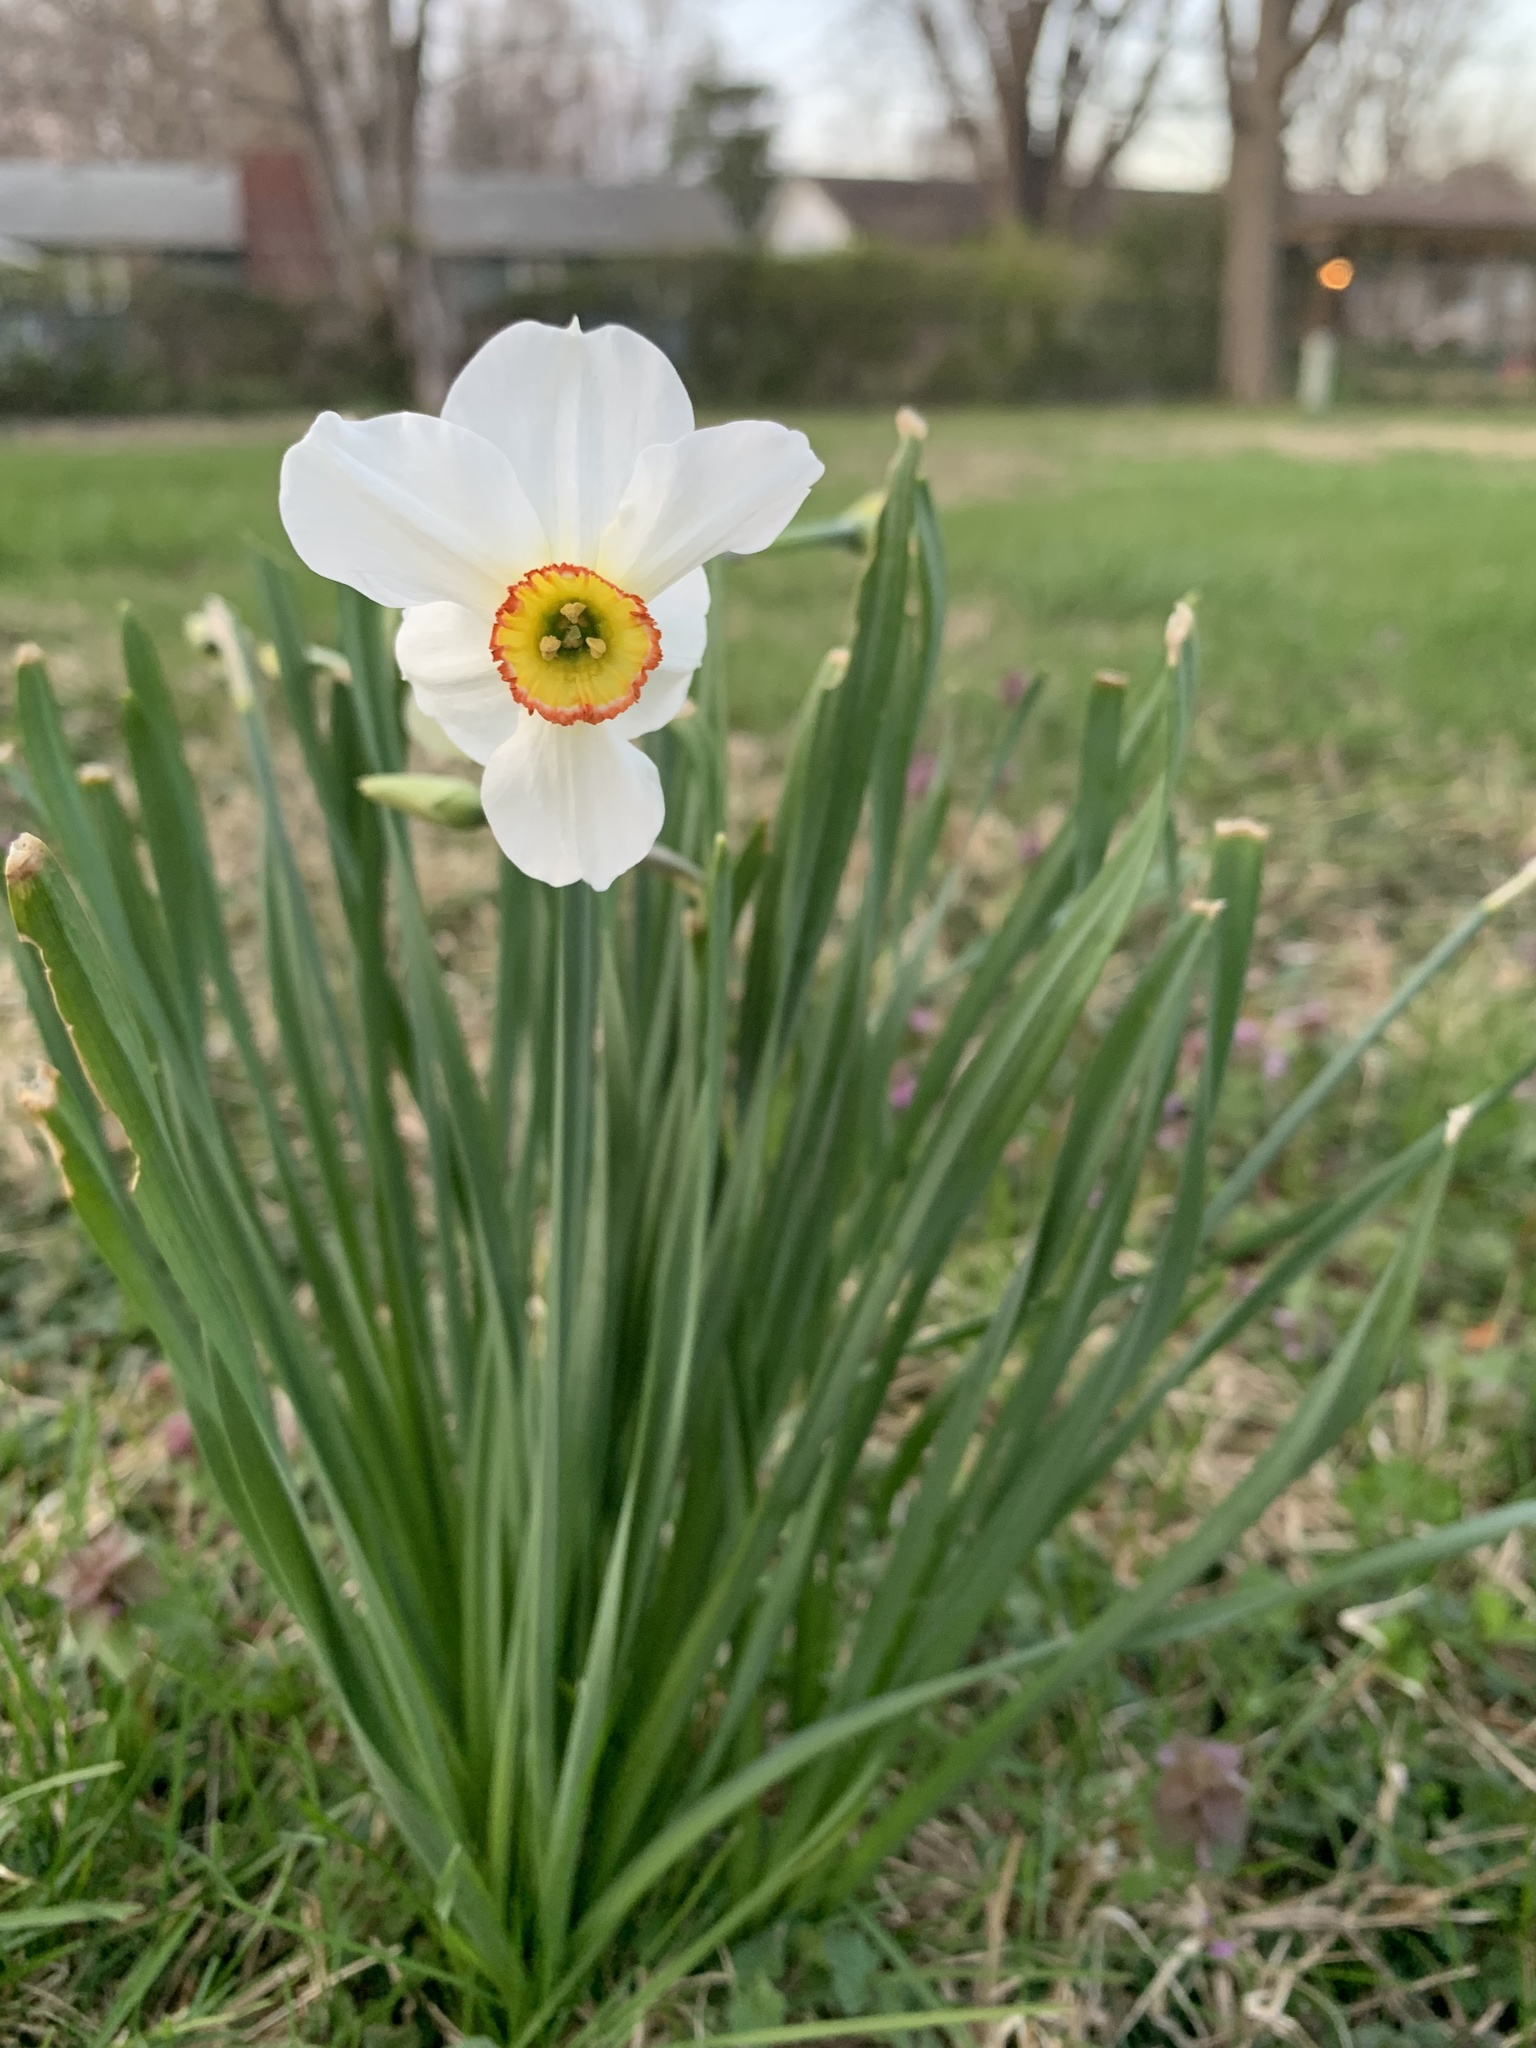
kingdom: Plantae
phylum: Tracheophyta
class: Liliopsida
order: Asparagales
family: Amaryllidaceae
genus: Narcissus
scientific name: Narcissus poeticus
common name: Pheasant's-eye daffodil
